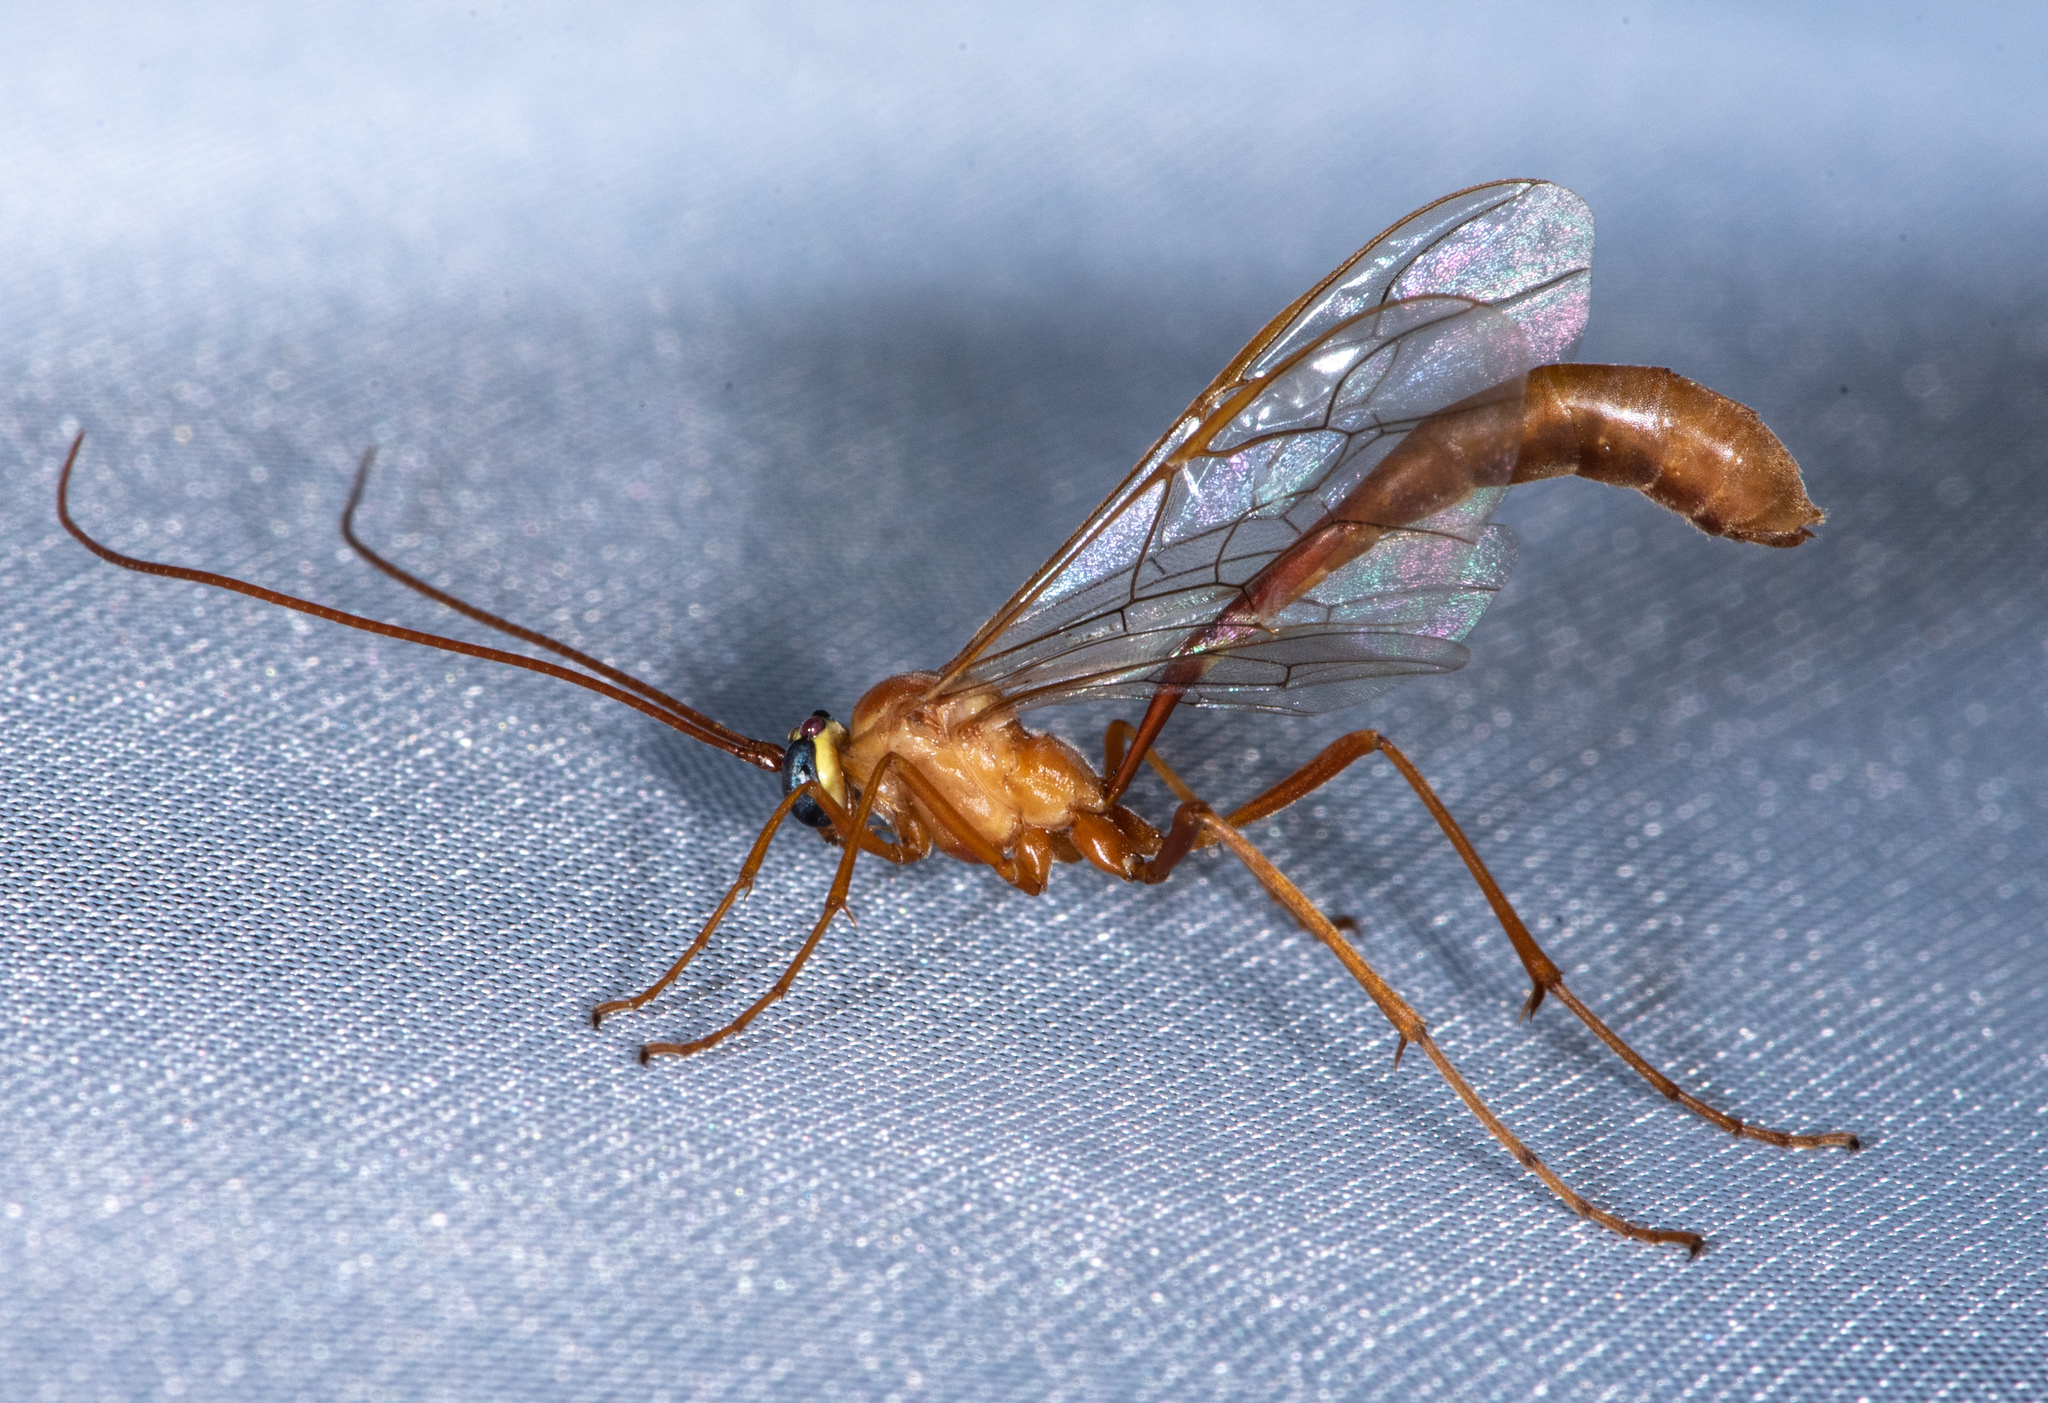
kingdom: Animalia
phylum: Arthropoda
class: Insecta
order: Hymenoptera
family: Ichneumonidae
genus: Enicospilus
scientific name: Enicospilus
